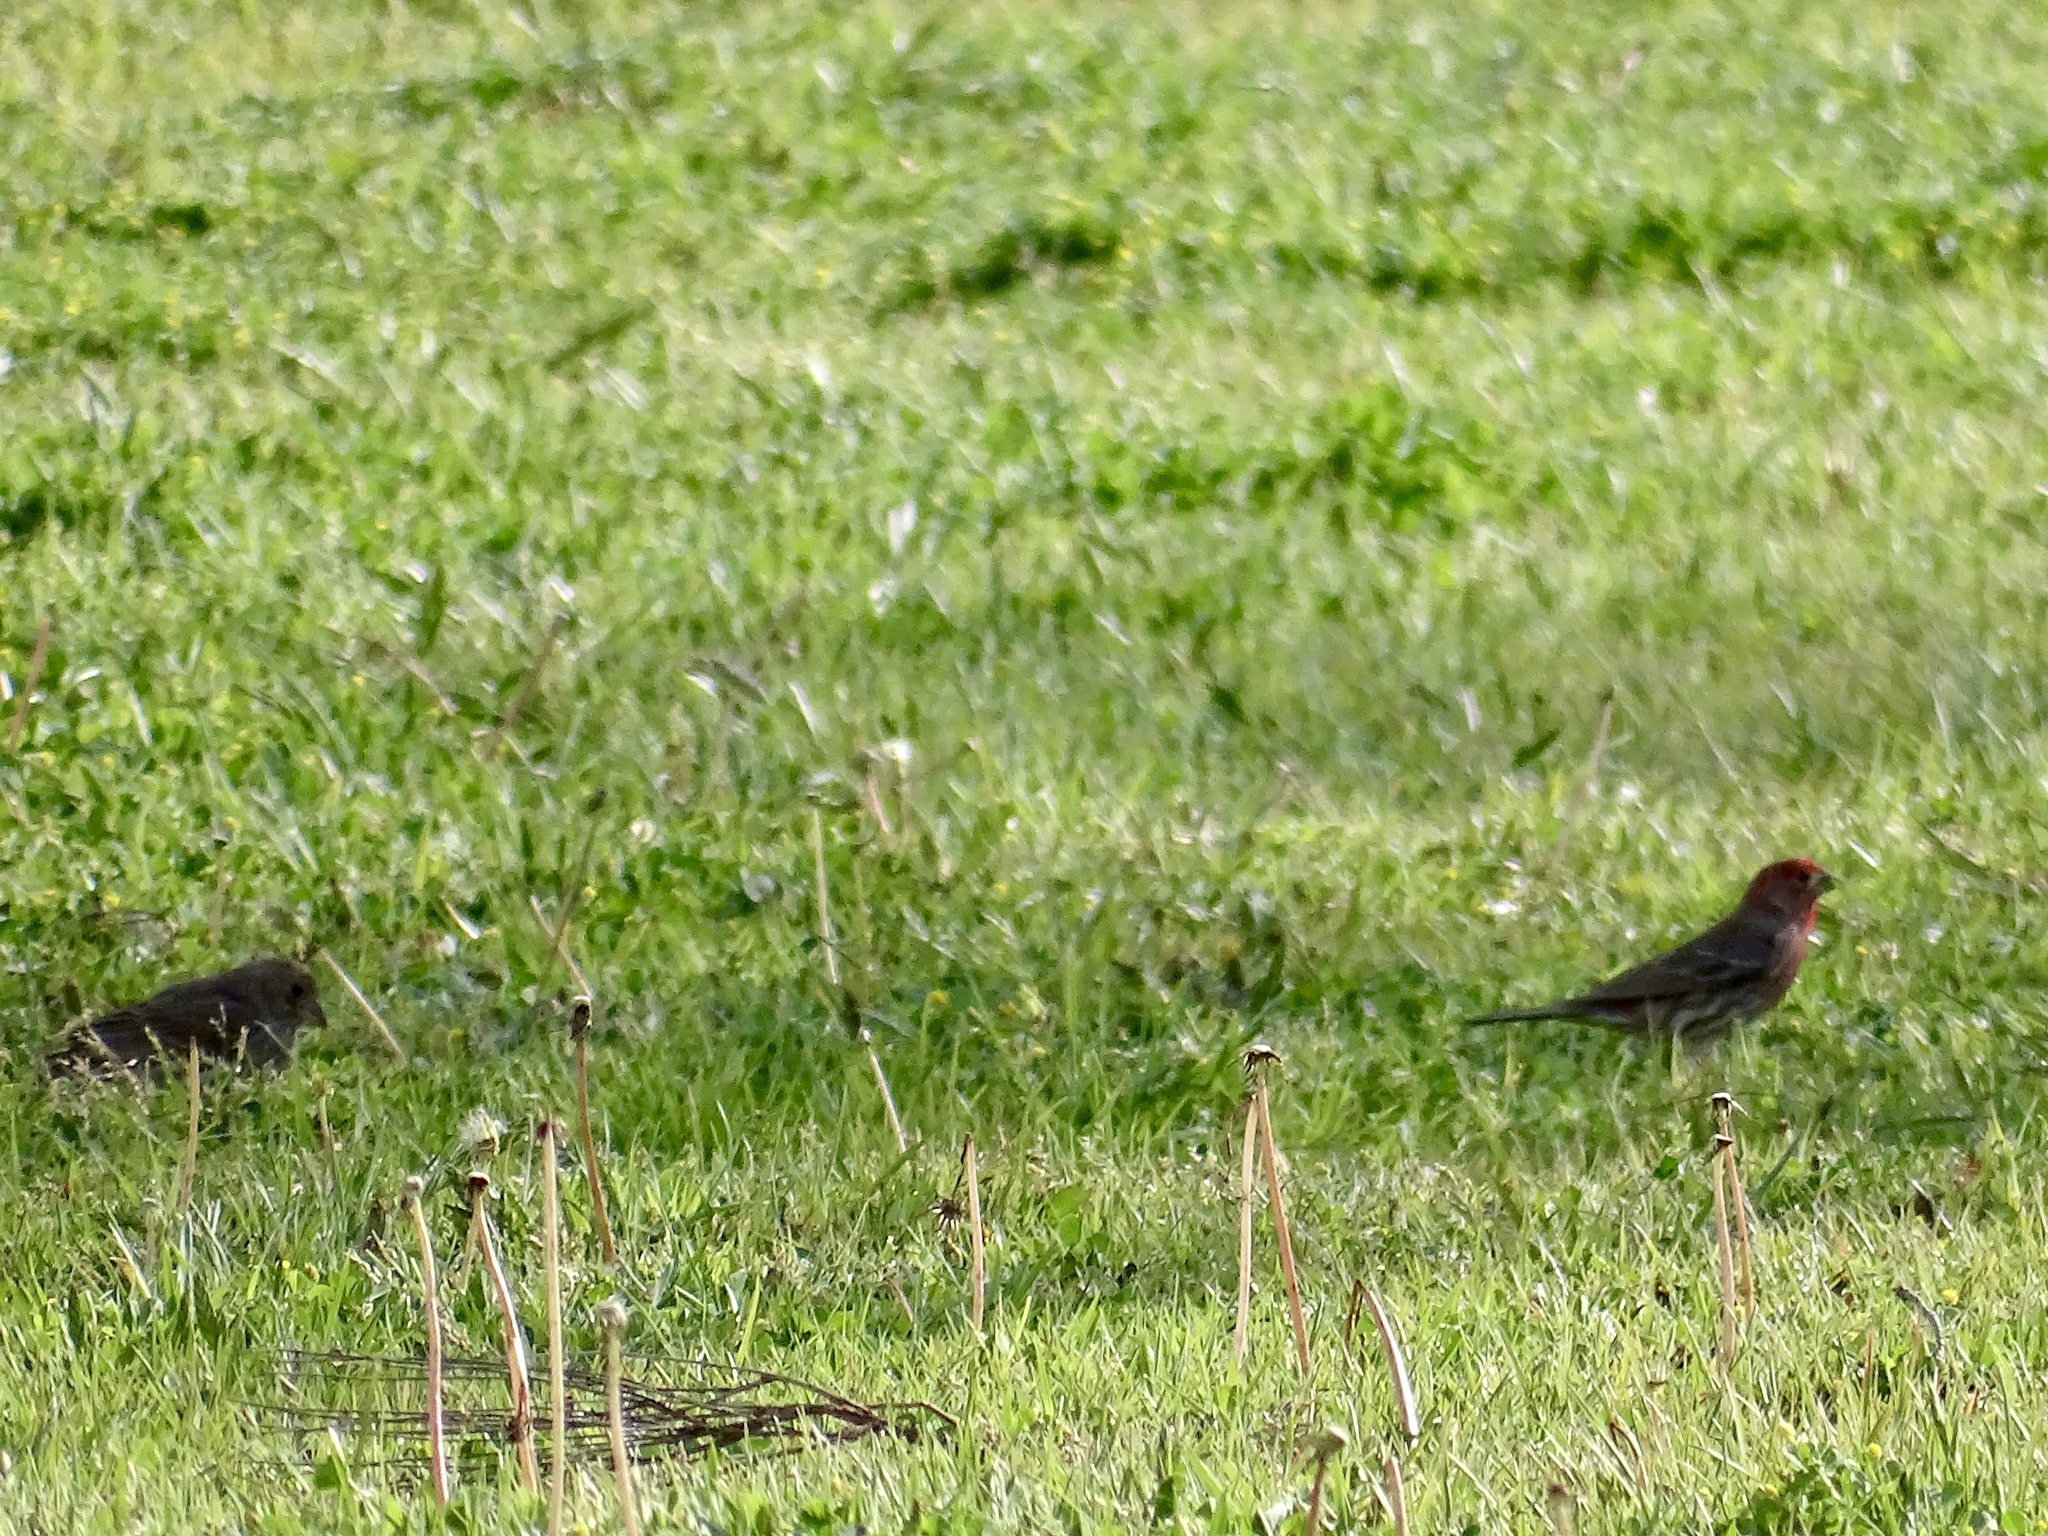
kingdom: Animalia
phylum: Chordata
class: Aves
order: Passeriformes
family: Fringillidae
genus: Haemorhous
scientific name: Haemorhous mexicanus
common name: House finch
